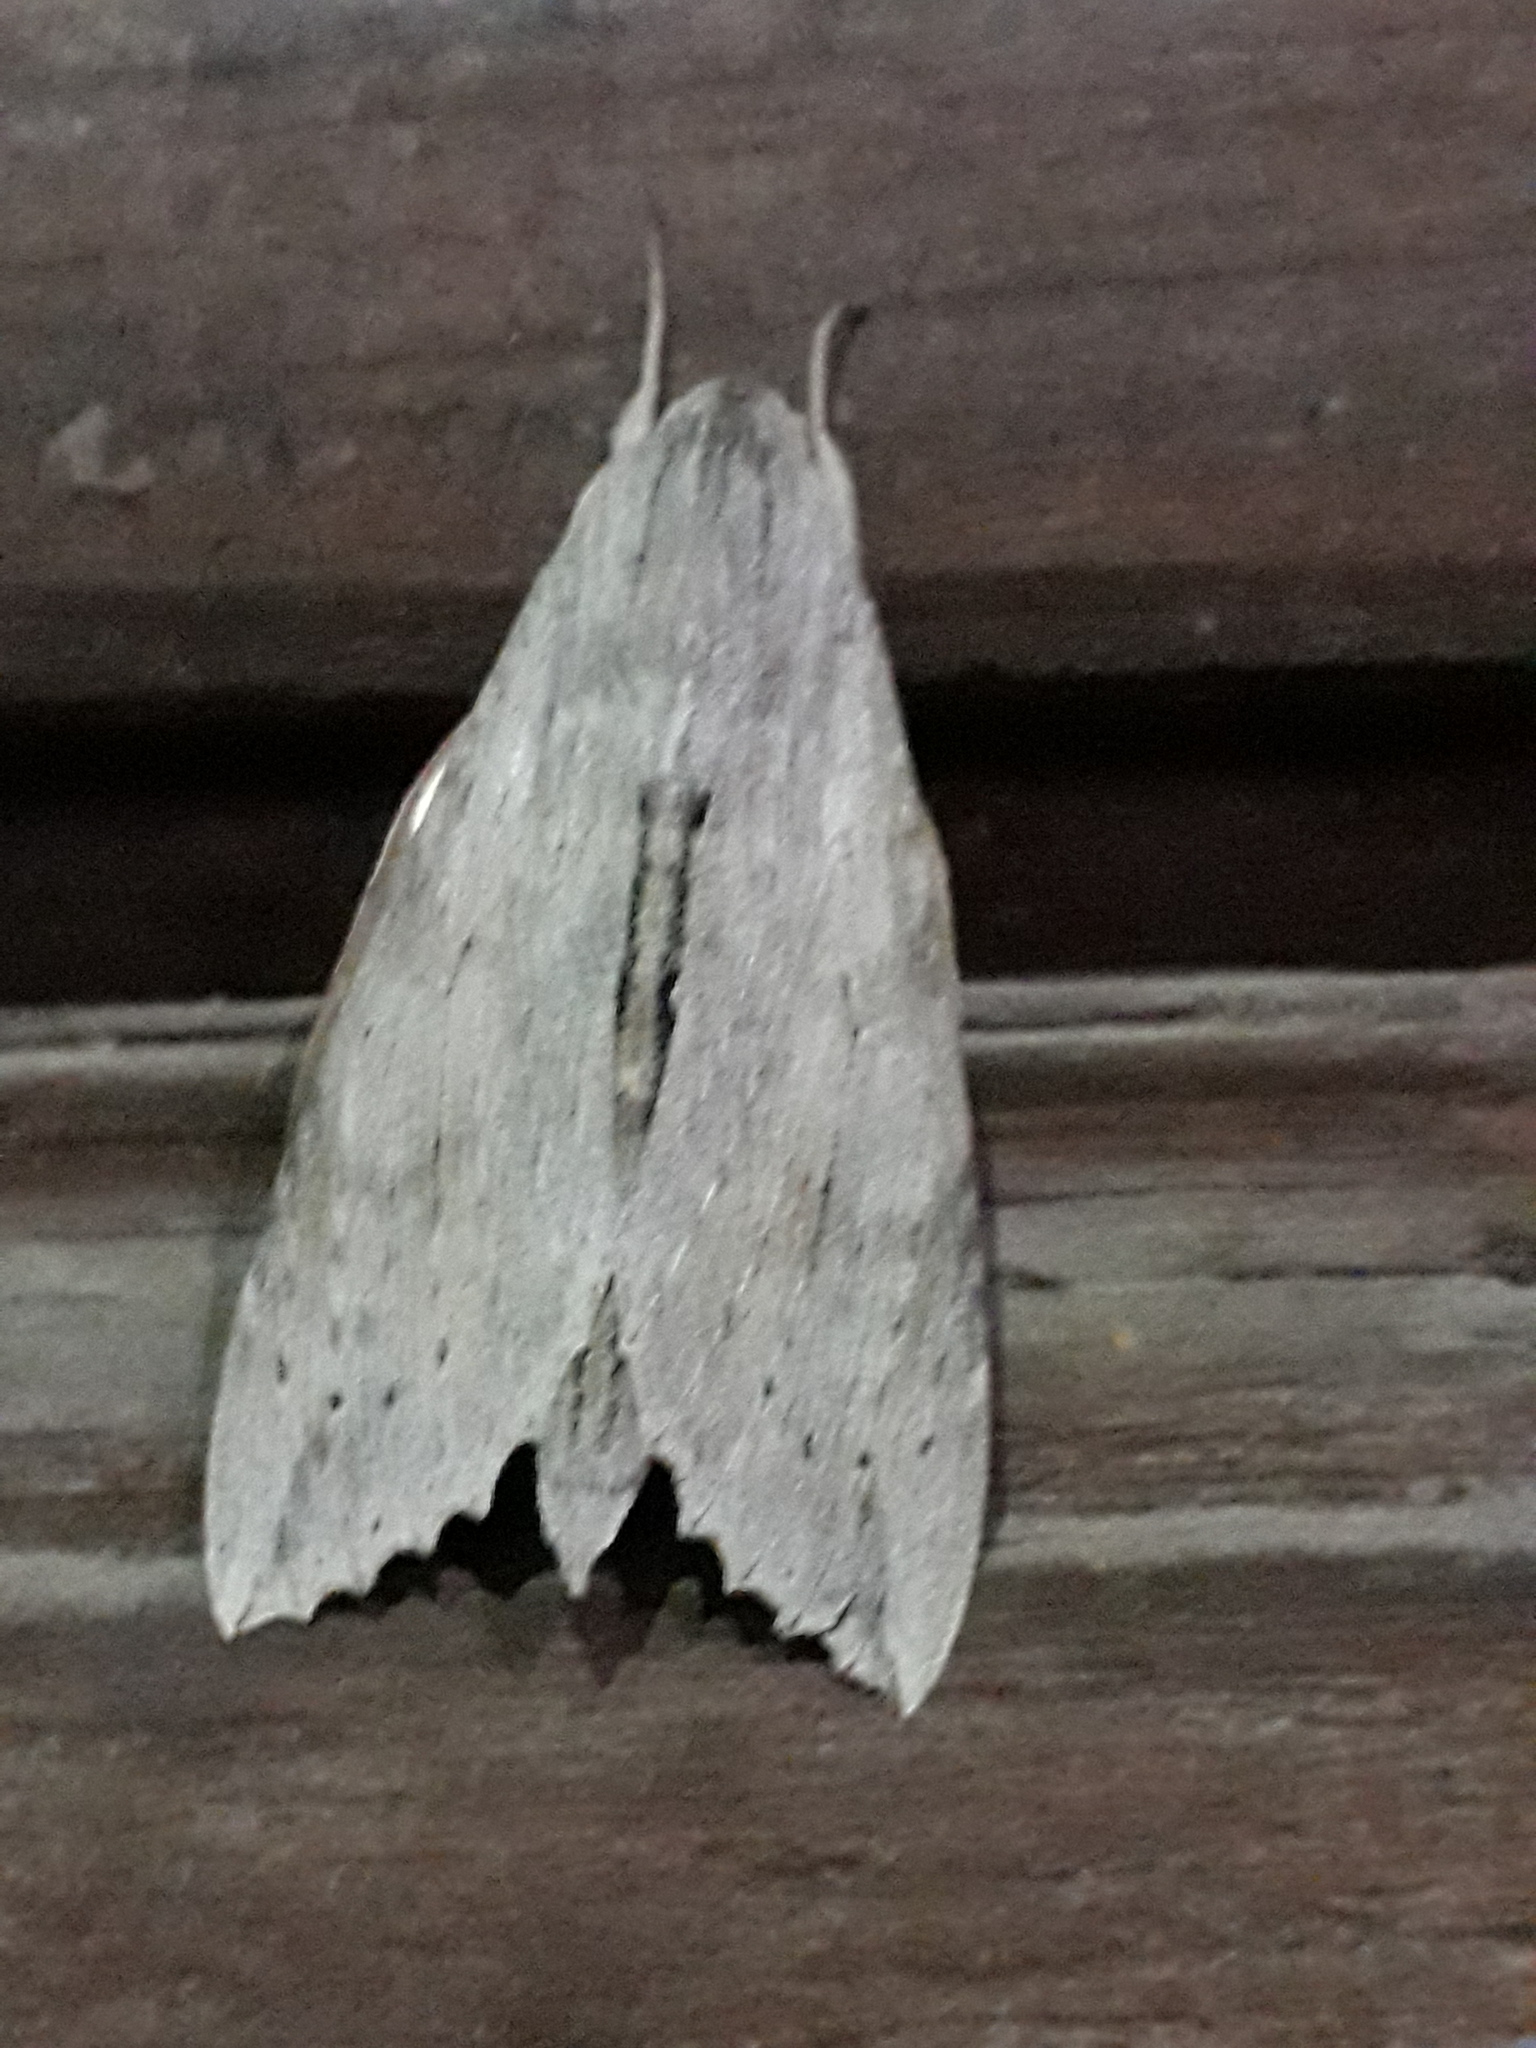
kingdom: Animalia
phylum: Arthropoda
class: Insecta
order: Lepidoptera
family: Sphingidae
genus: Erinnyis
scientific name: Erinnyis ello
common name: Ello sphinx
